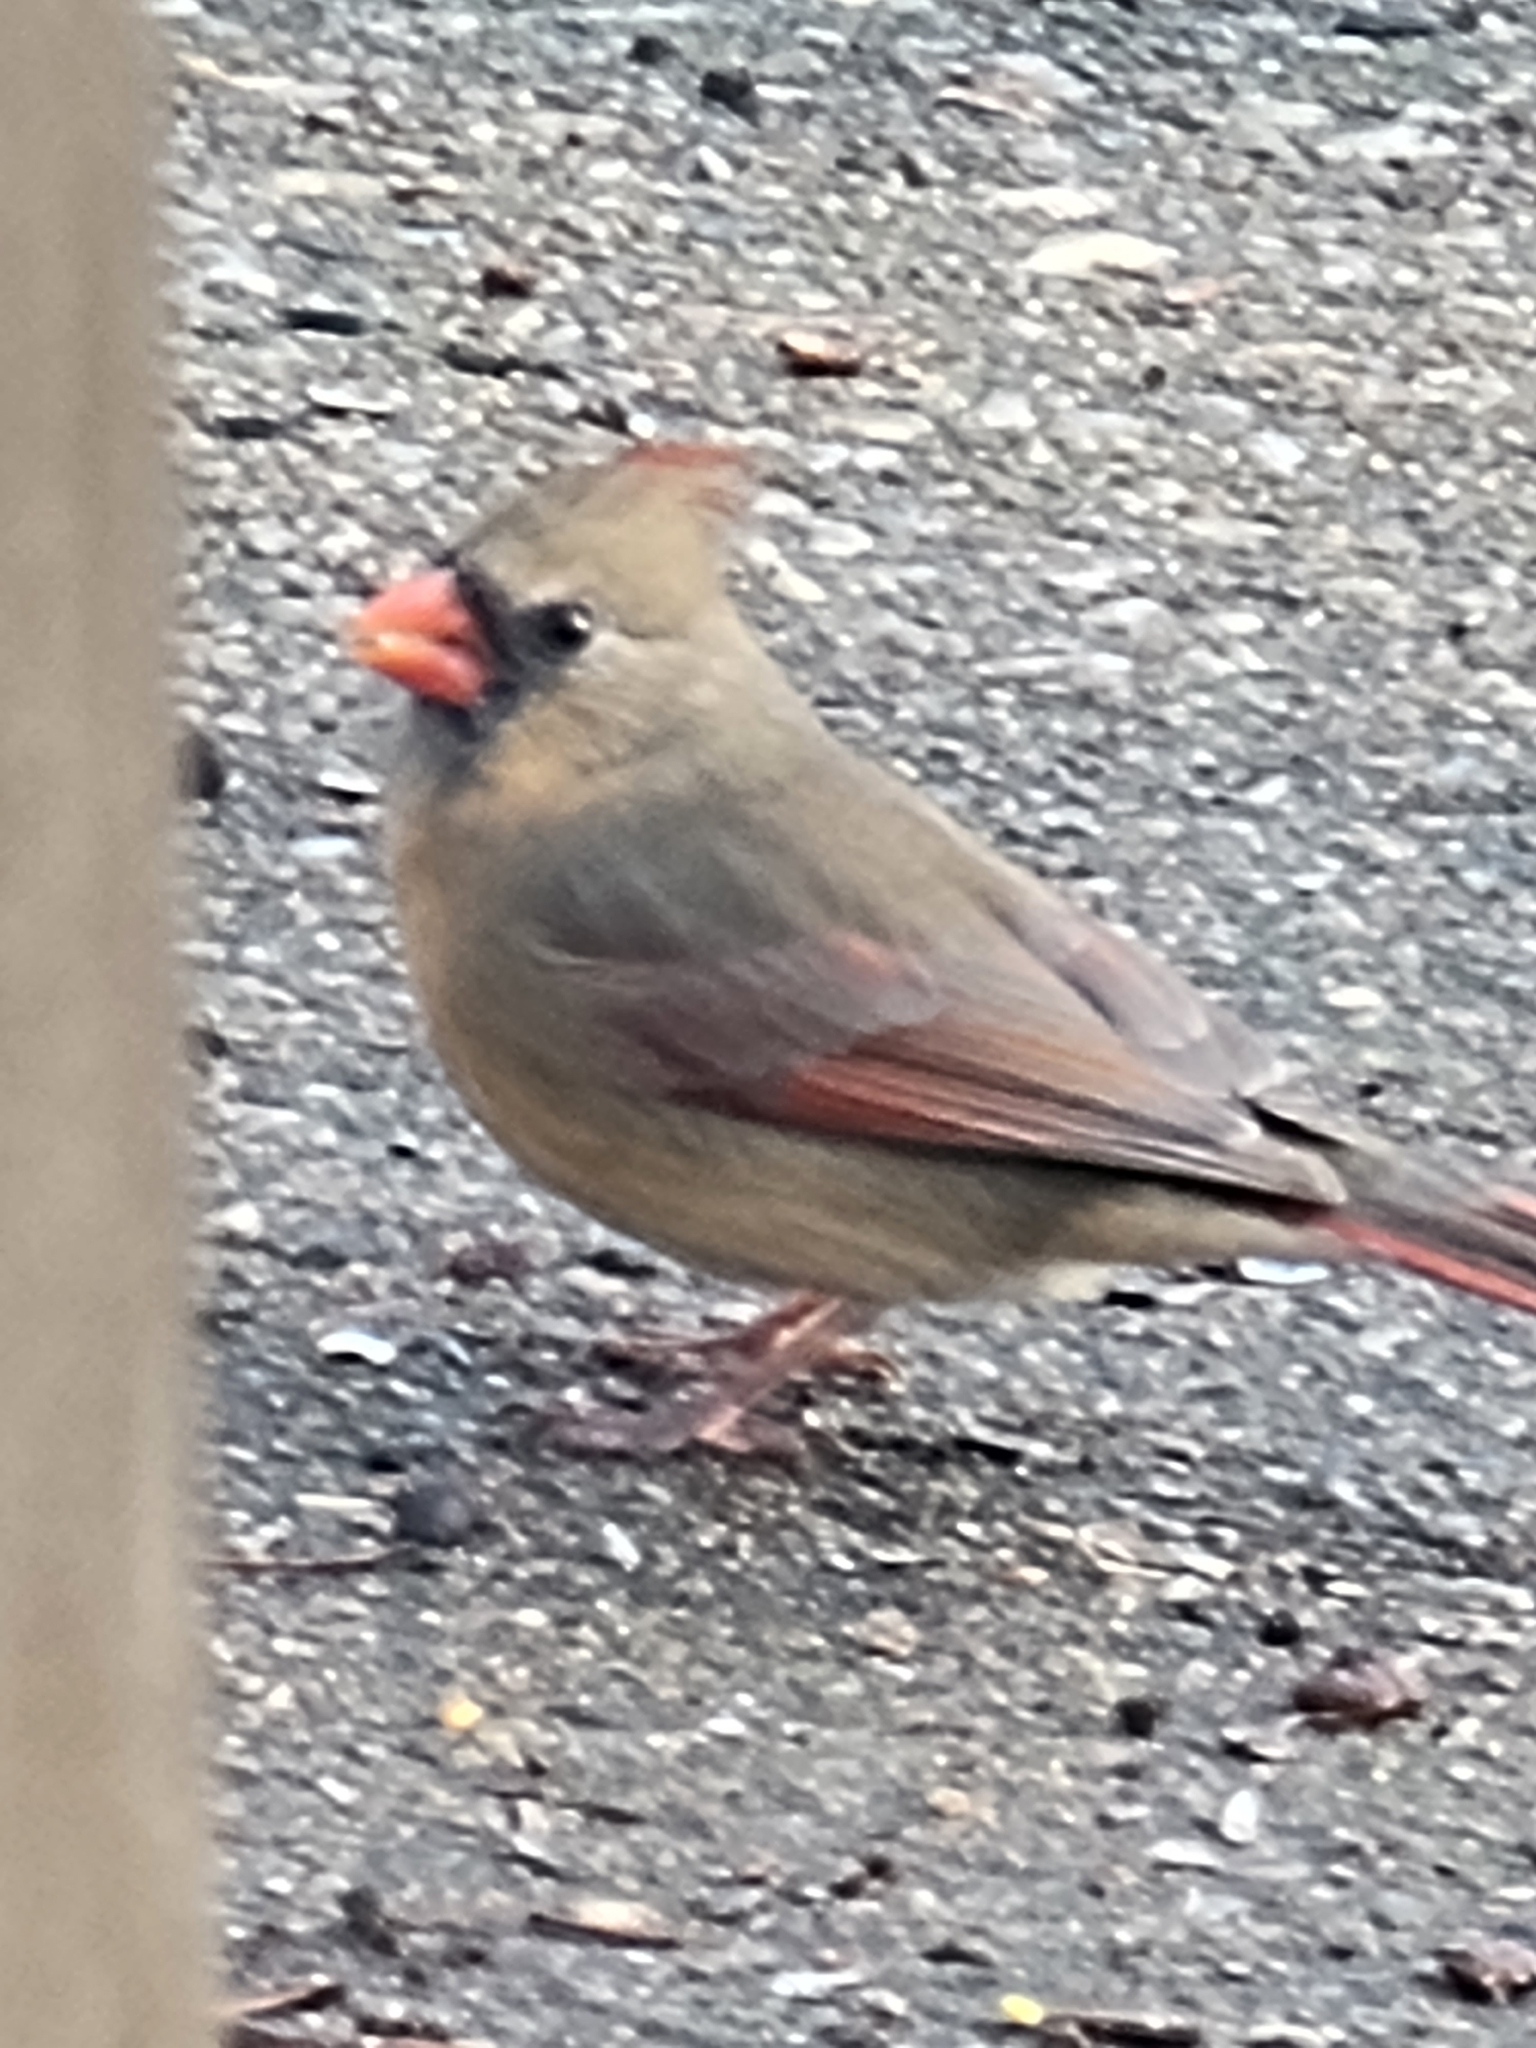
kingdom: Animalia
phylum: Chordata
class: Aves
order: Passeriformes
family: Cardinalidae
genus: Cardinalis
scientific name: Cardinalis cardinalis
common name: Northern cardinal
